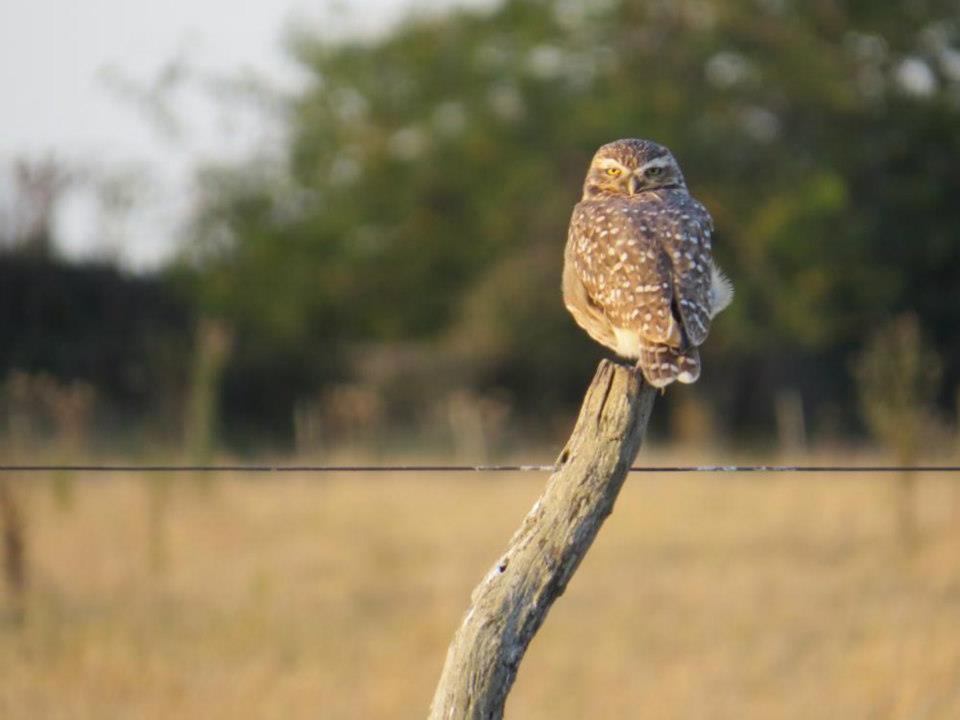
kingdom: Animalia
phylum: Chordata
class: Aves
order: Strigiformes
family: Strigidae
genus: Athene
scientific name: Athene cunicularia
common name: Burrowing owl
